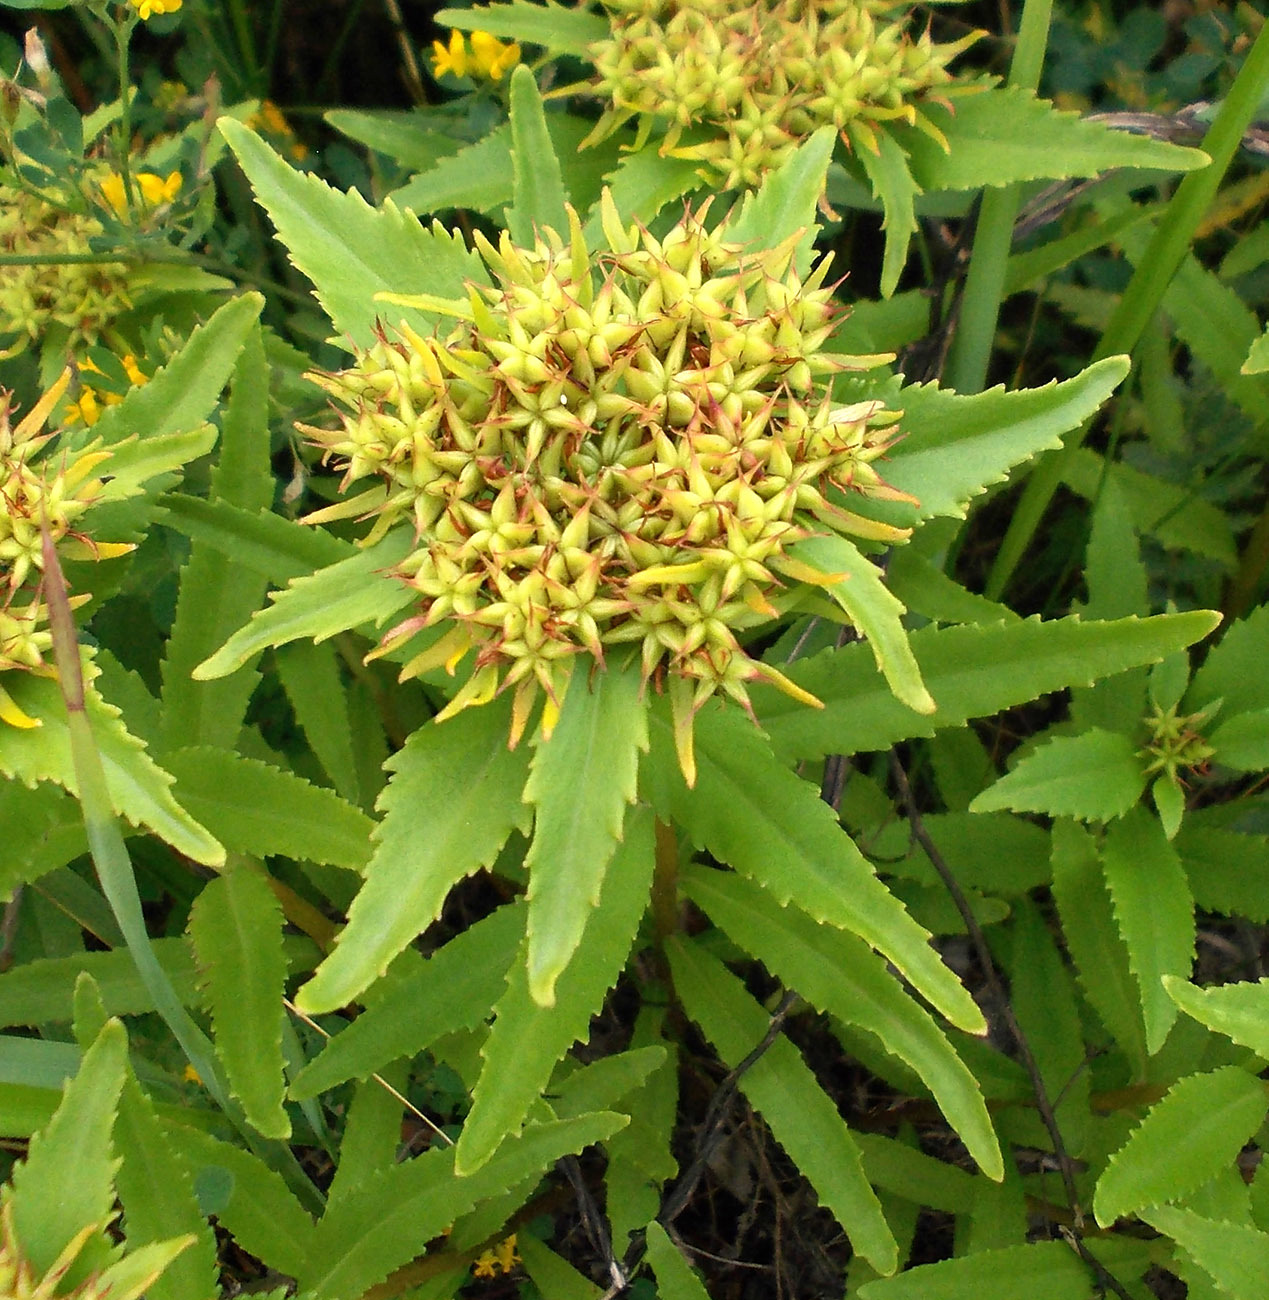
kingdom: Plantae
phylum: Tracheophyta
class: Magnoliopsida
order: Saxifragales
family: Crassulaceae
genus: Phedimus
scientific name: Phedimus aizoon
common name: Orpin aizoon
